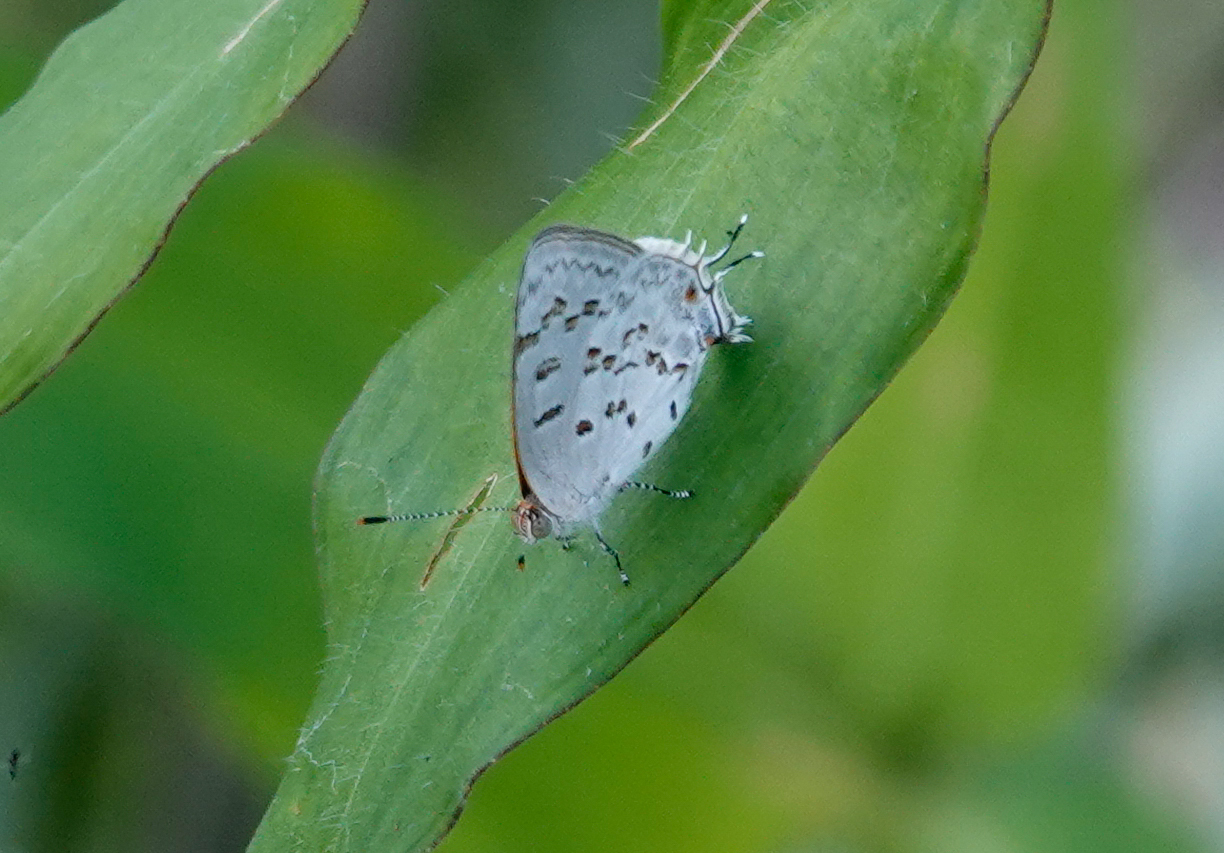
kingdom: Animalia
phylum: Arthropoda
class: Insecta
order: Lepidoptera
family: Lycaenidae
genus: Thecla
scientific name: Thecla una
